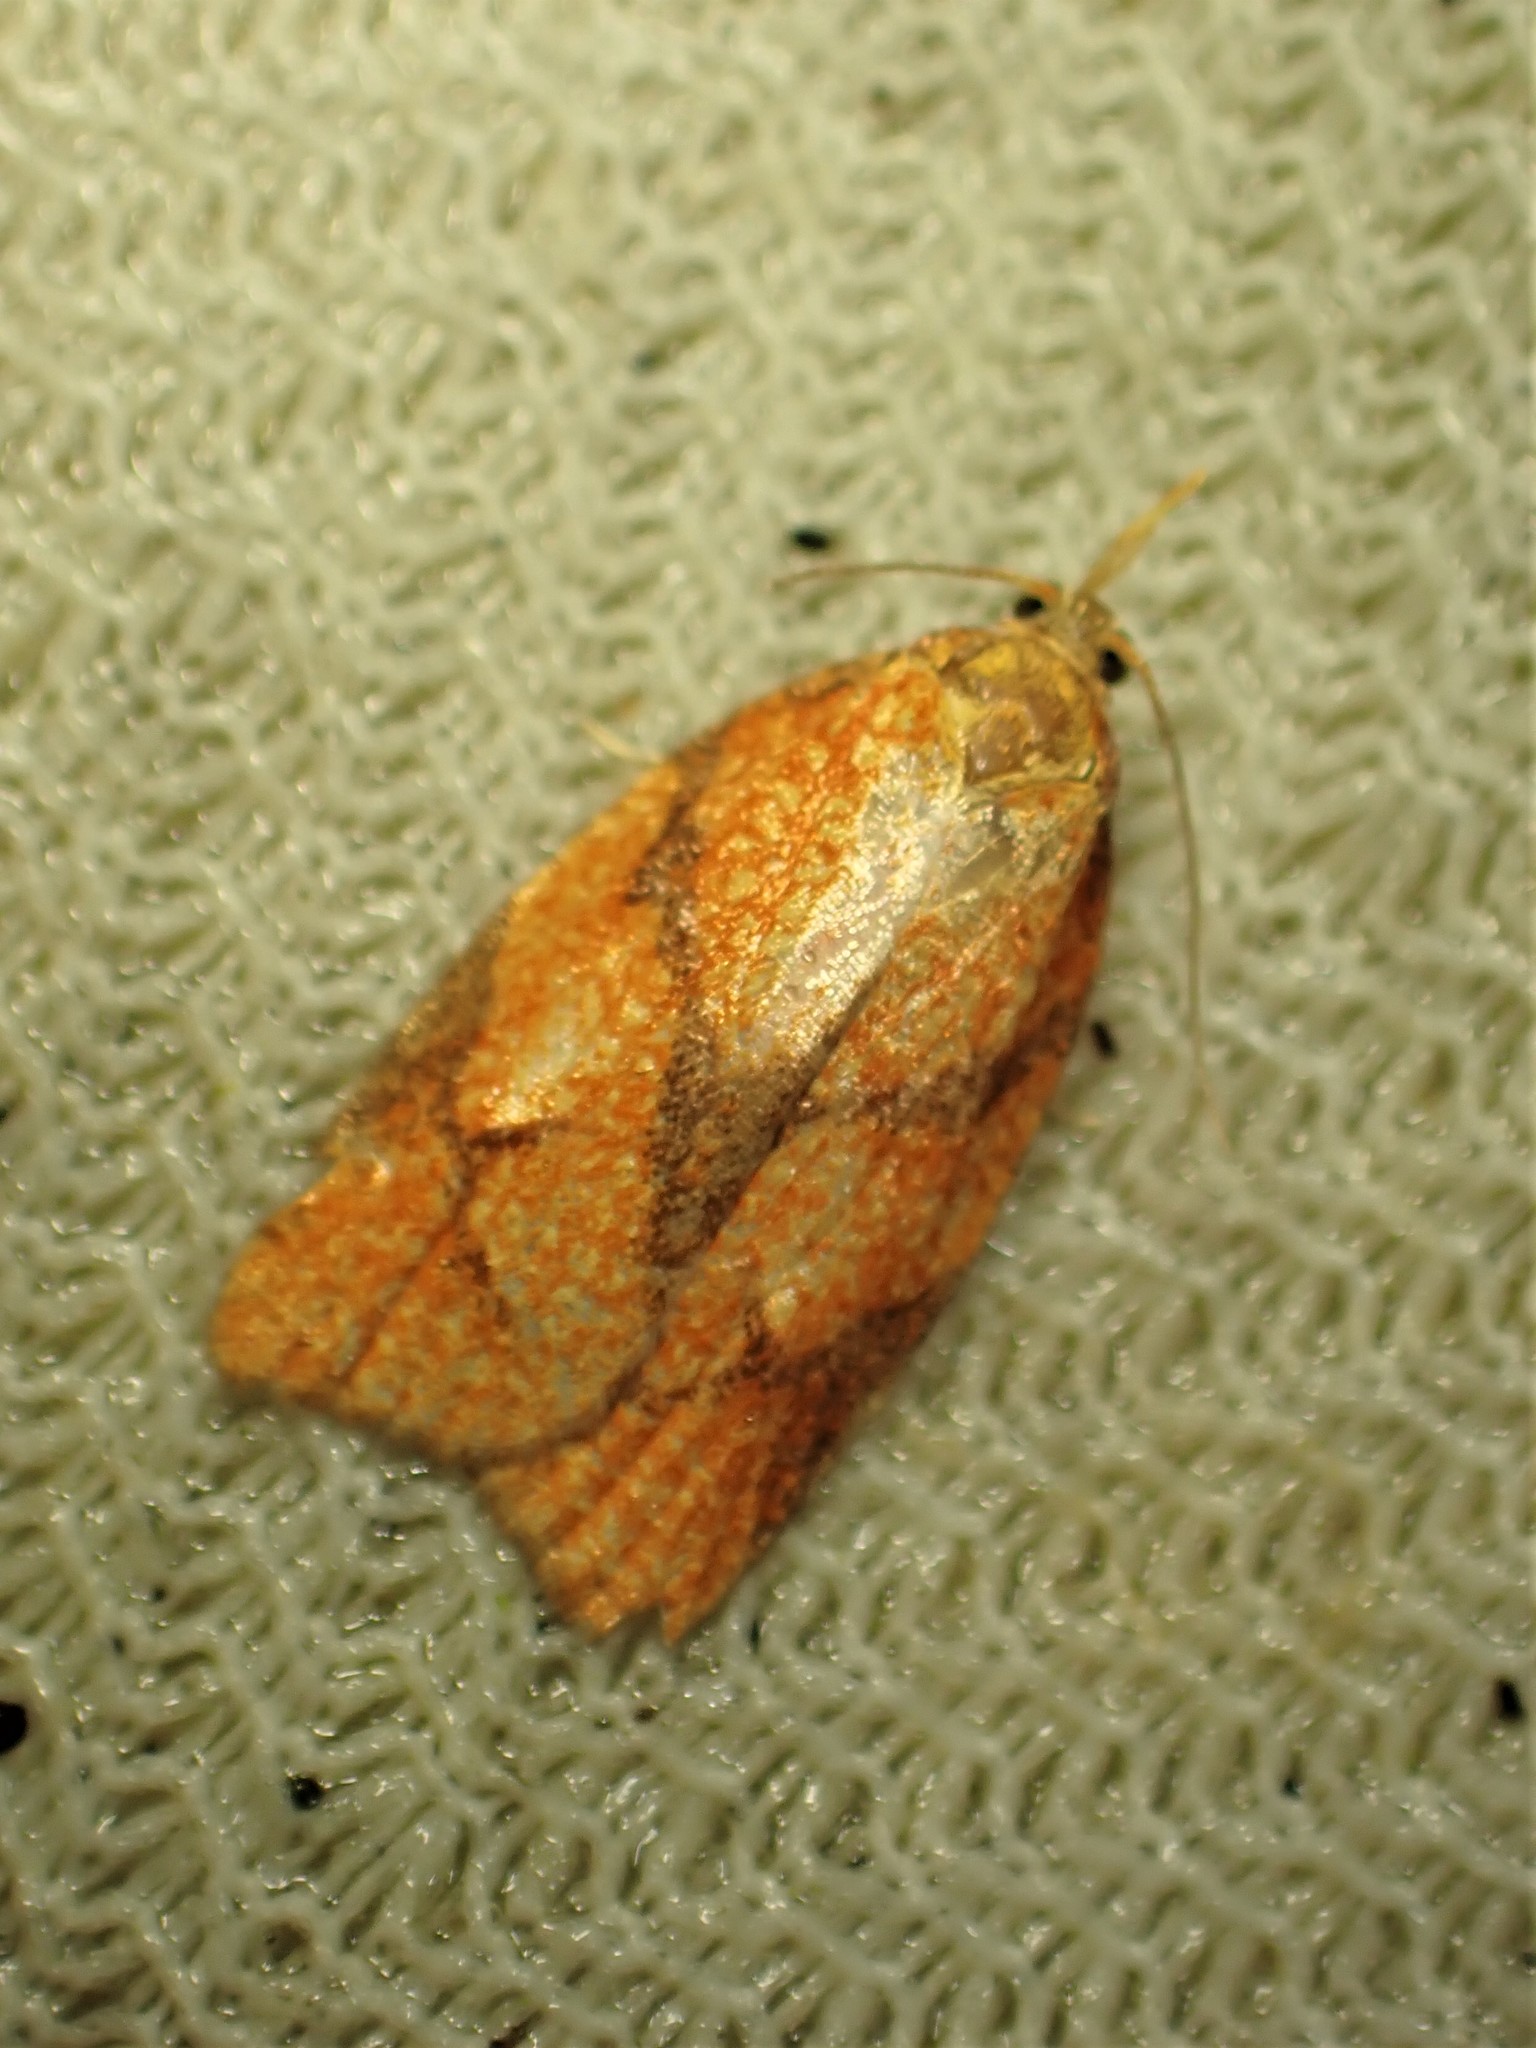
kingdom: Animalia
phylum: Arthropoda
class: Insecta
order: Lepidoptera
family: Tortricidae
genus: Cenopis
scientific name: Cenopis reticulatana
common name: Reticulated fruitworm moth
